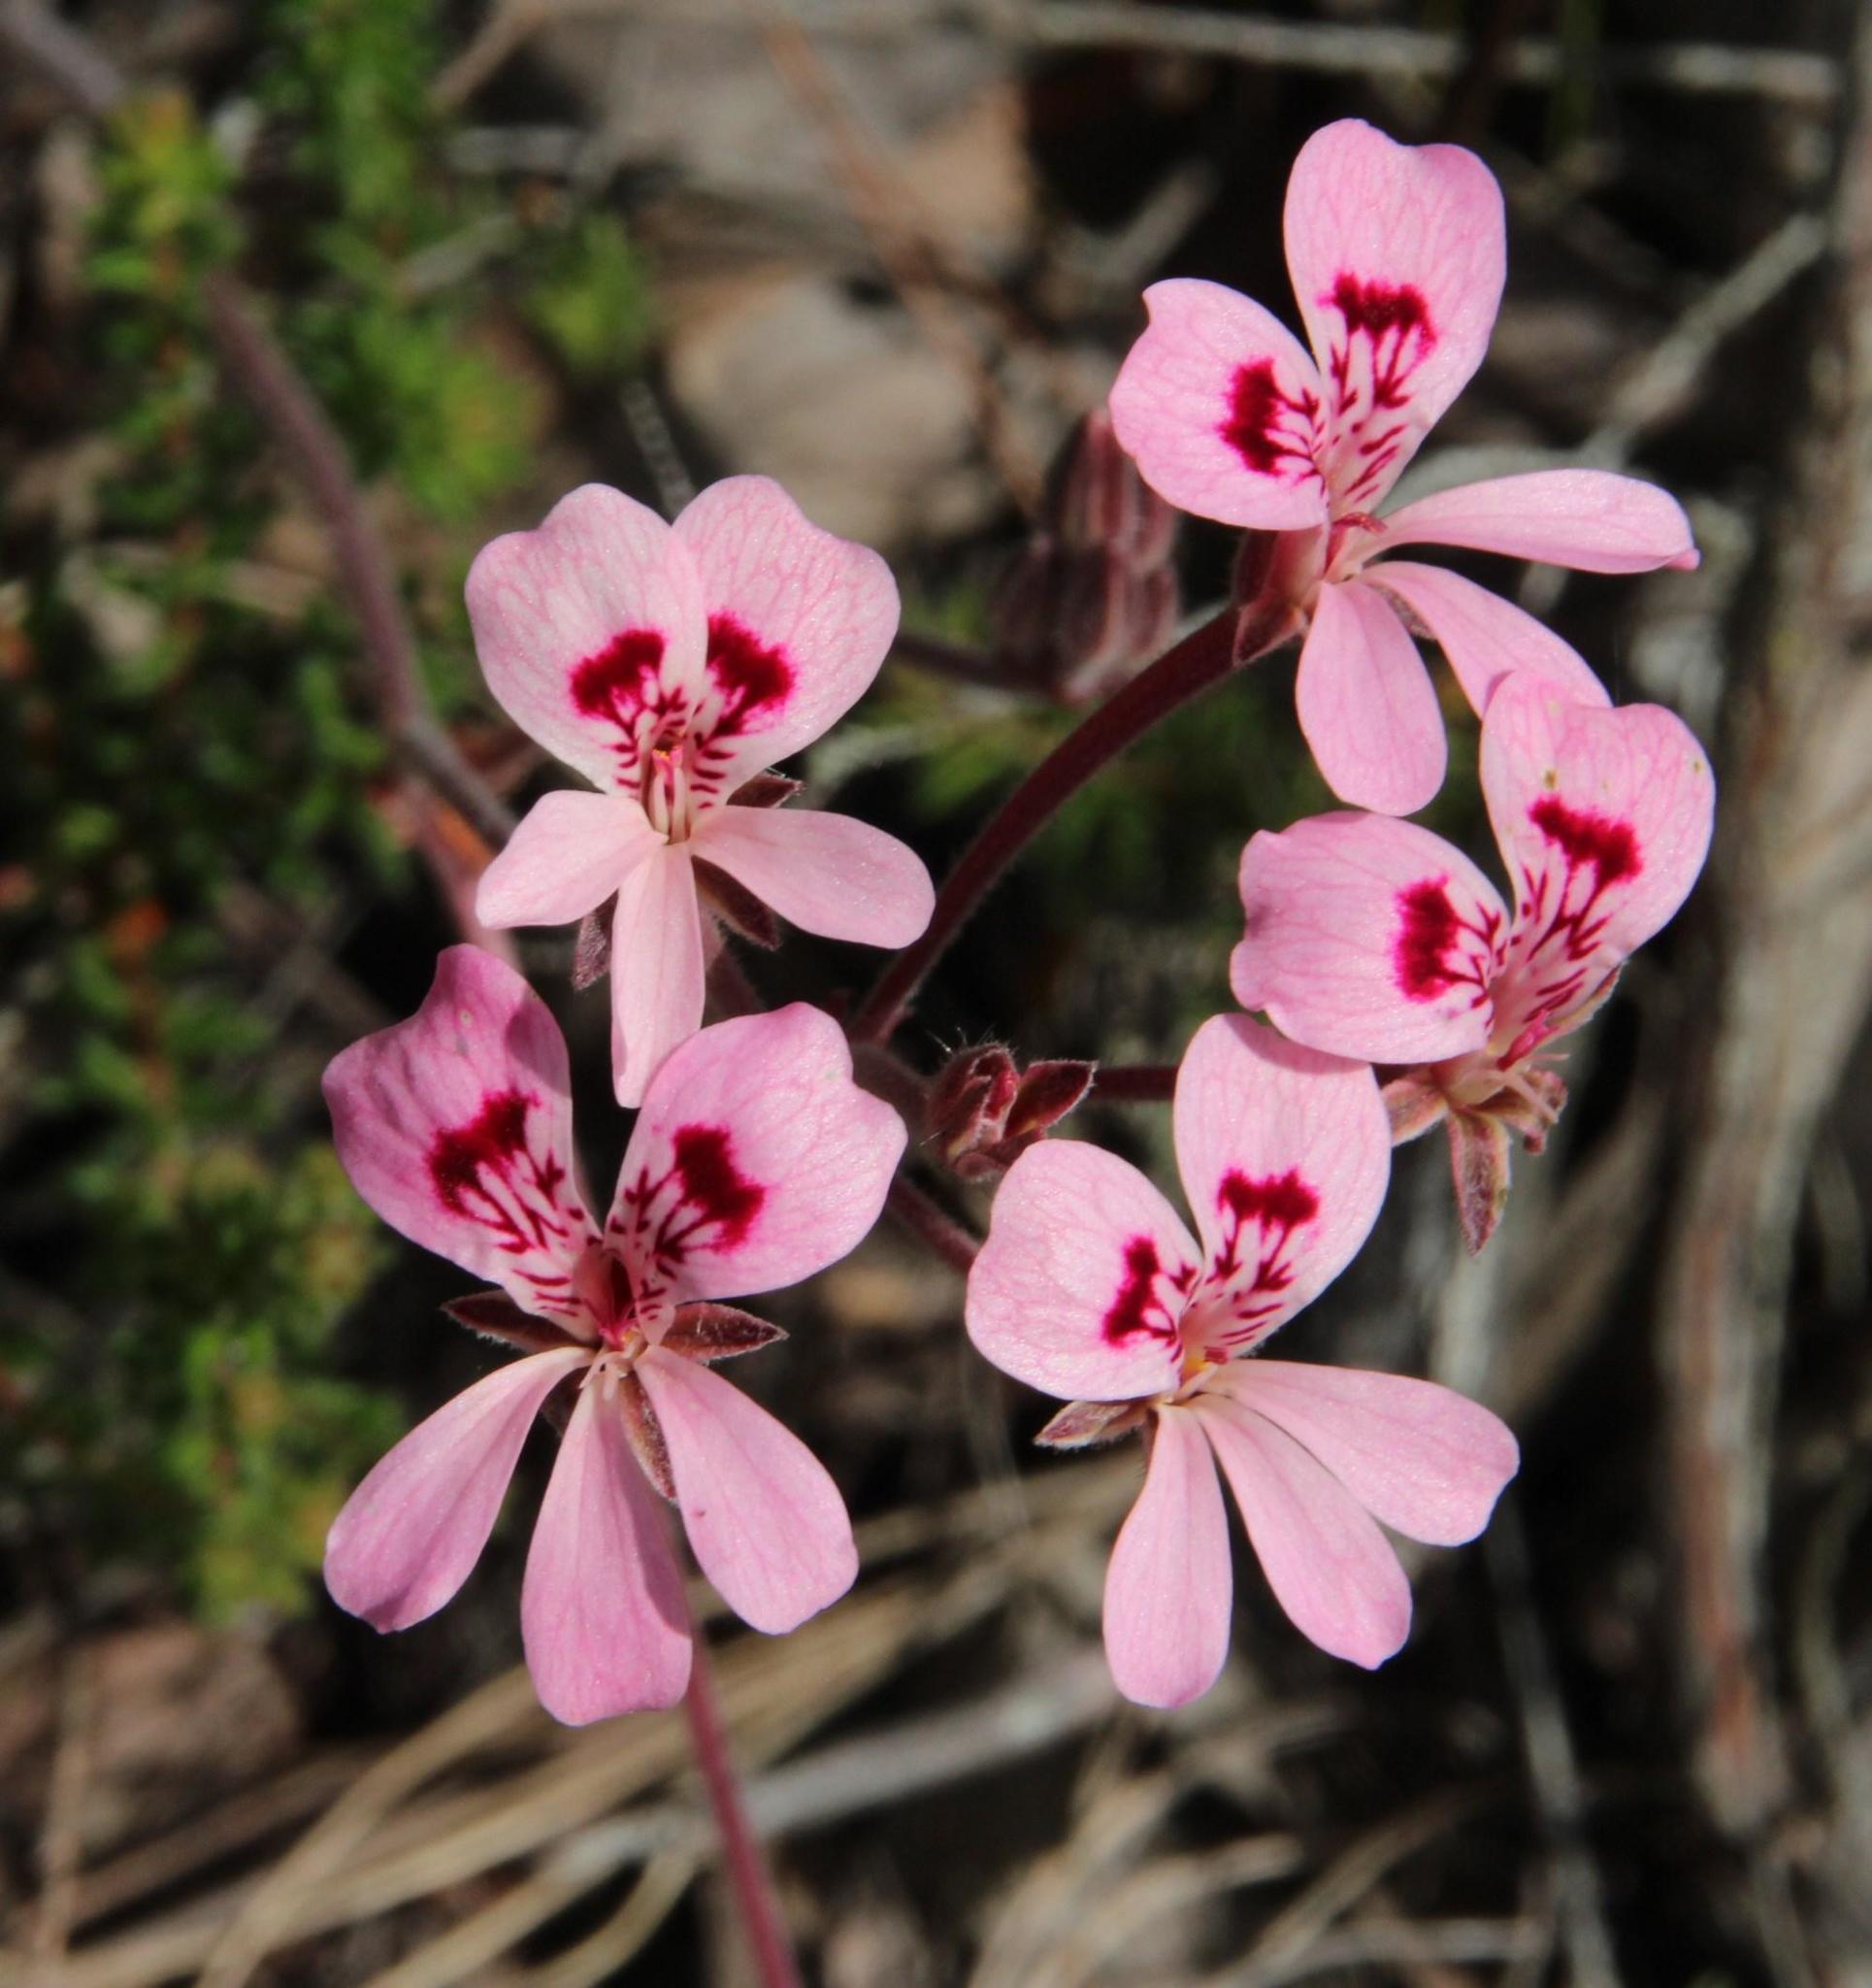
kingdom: Plantae
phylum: Tracheophyta
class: Magnoliopsida
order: Geraniales
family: Geraniaceae
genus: Pelargonium
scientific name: Pelargonium pinnatum
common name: Pinnated pelargonium
